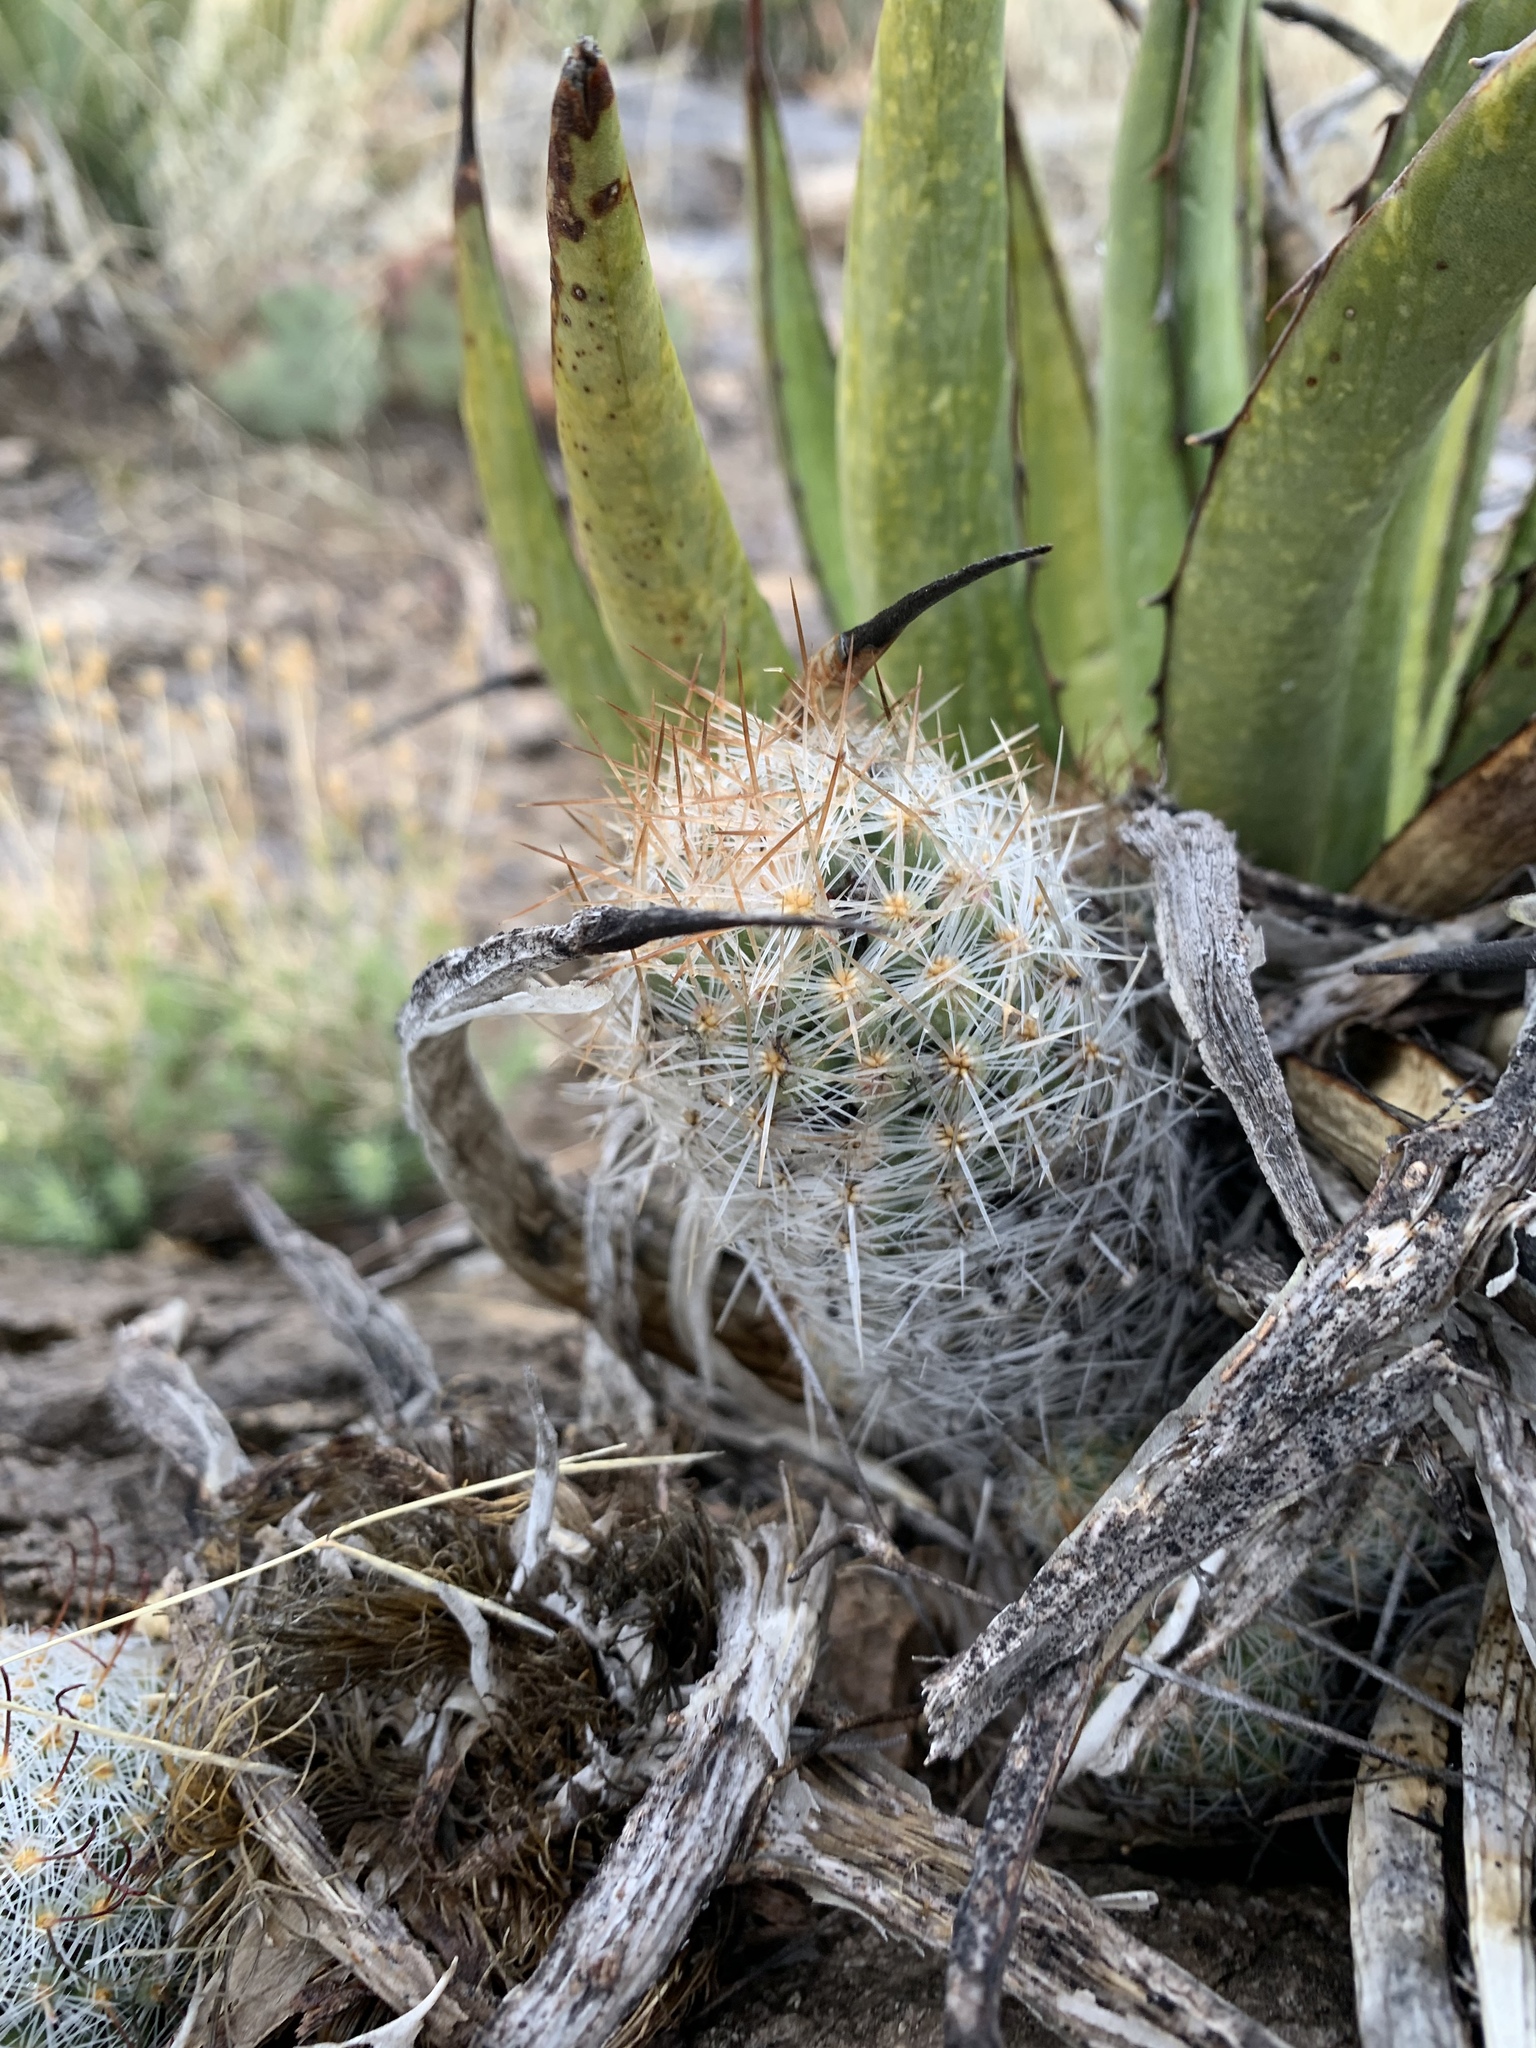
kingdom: Plantae
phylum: Tracheophyta
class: Magnoliopsida
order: Caryophyllales
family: Cactaceae
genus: Pelecyphora
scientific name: Pelecyphora tuberculosa
